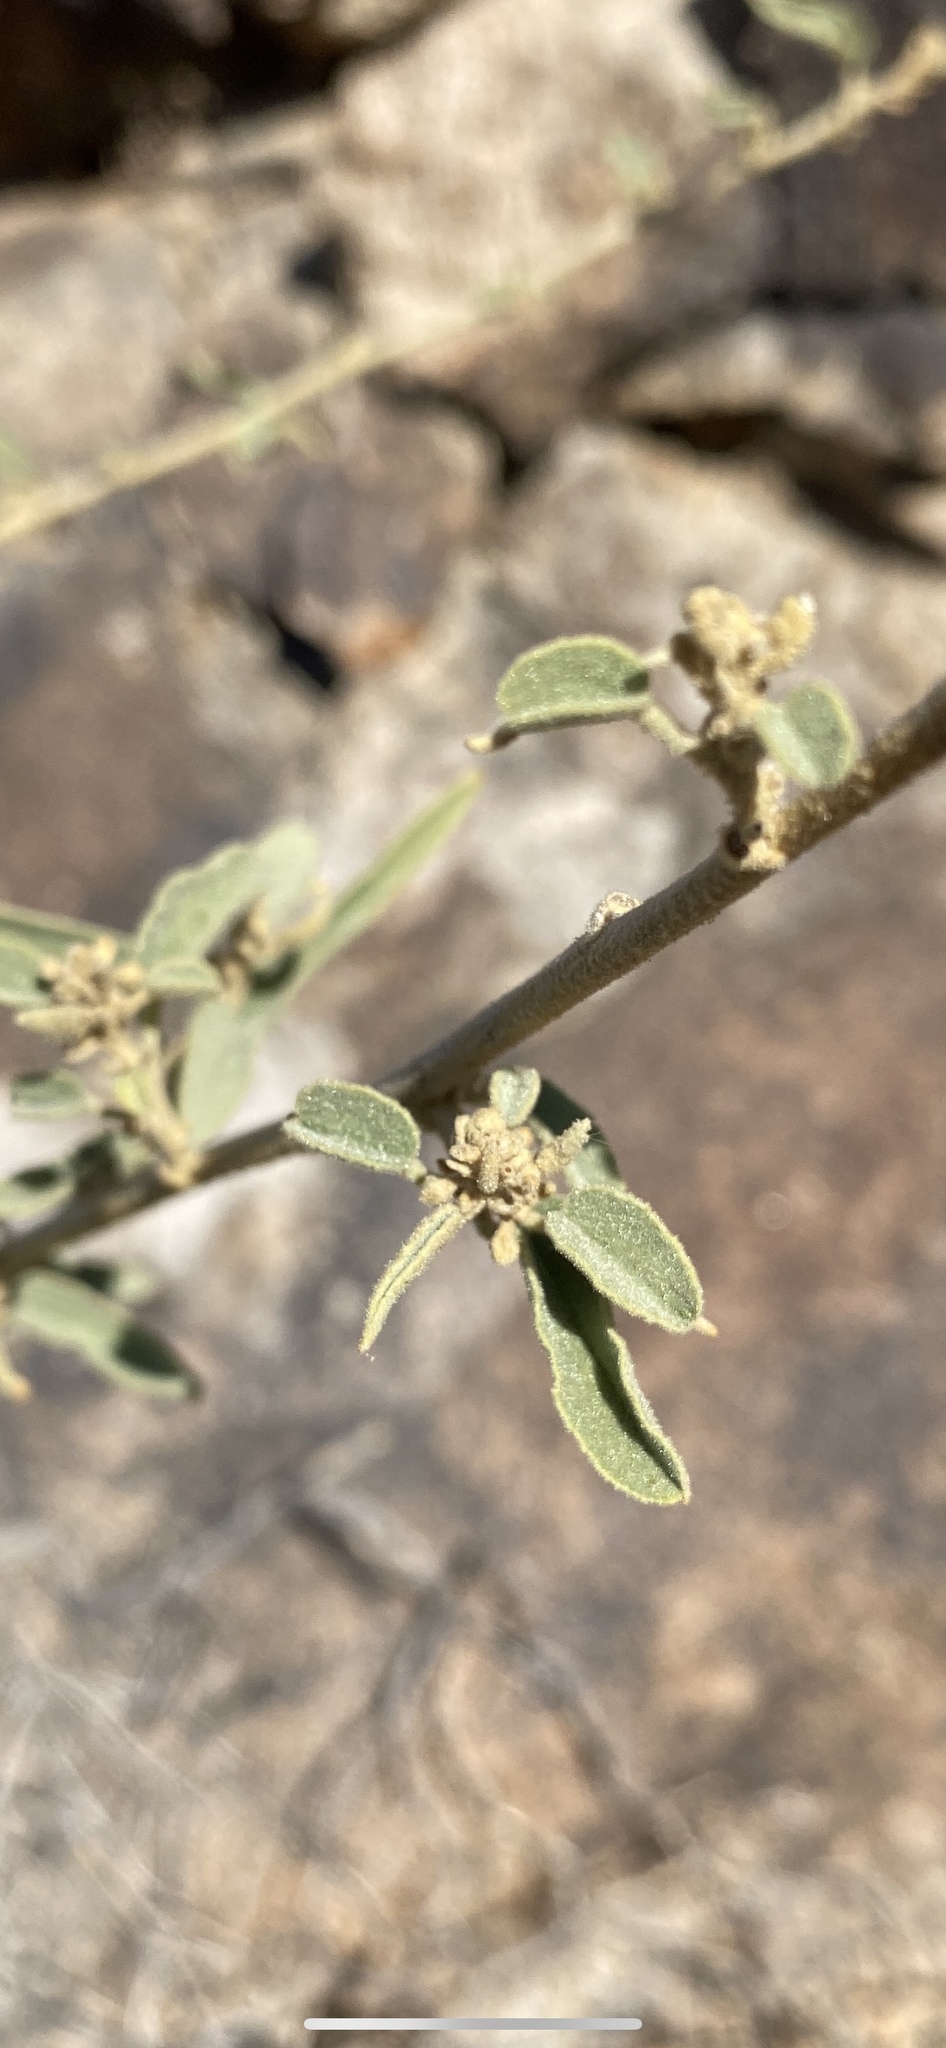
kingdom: Plantae
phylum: Tracheophyta
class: Magnoliopsida
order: Malvales
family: Malvaceae
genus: Horsfordia
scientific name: Horsfordia newberryi
